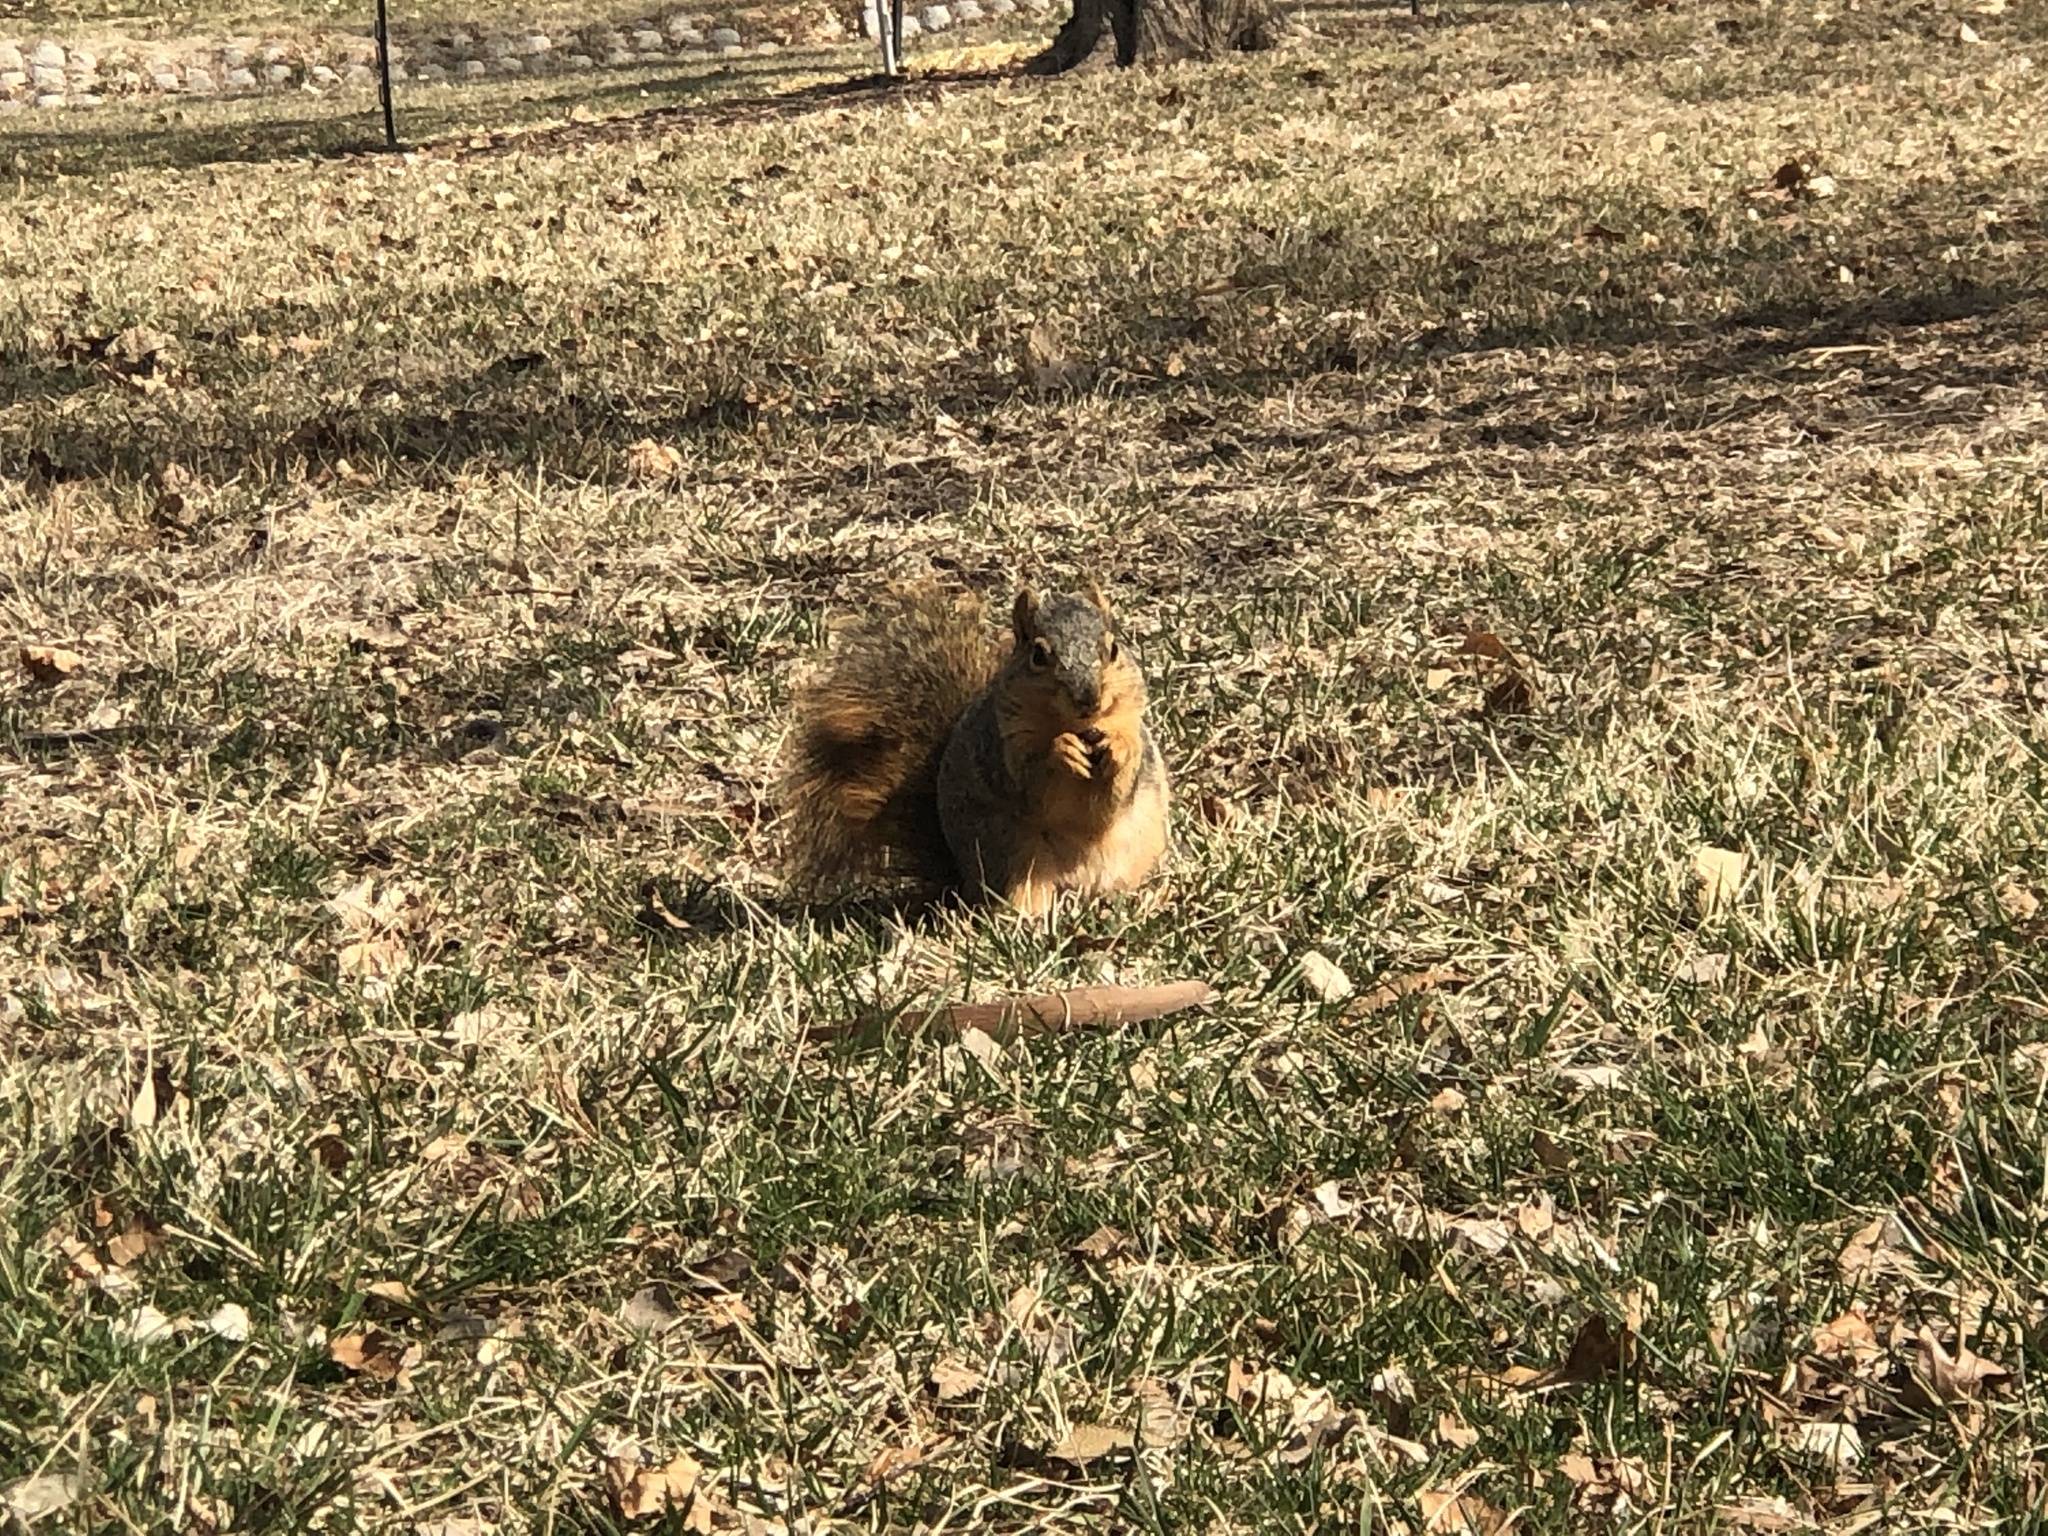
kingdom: Animalia
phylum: Chordata
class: Mammalia
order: Rodentia
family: Sciuridae
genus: Sciurus
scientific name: Sciurus niger
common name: Fox squirrel
